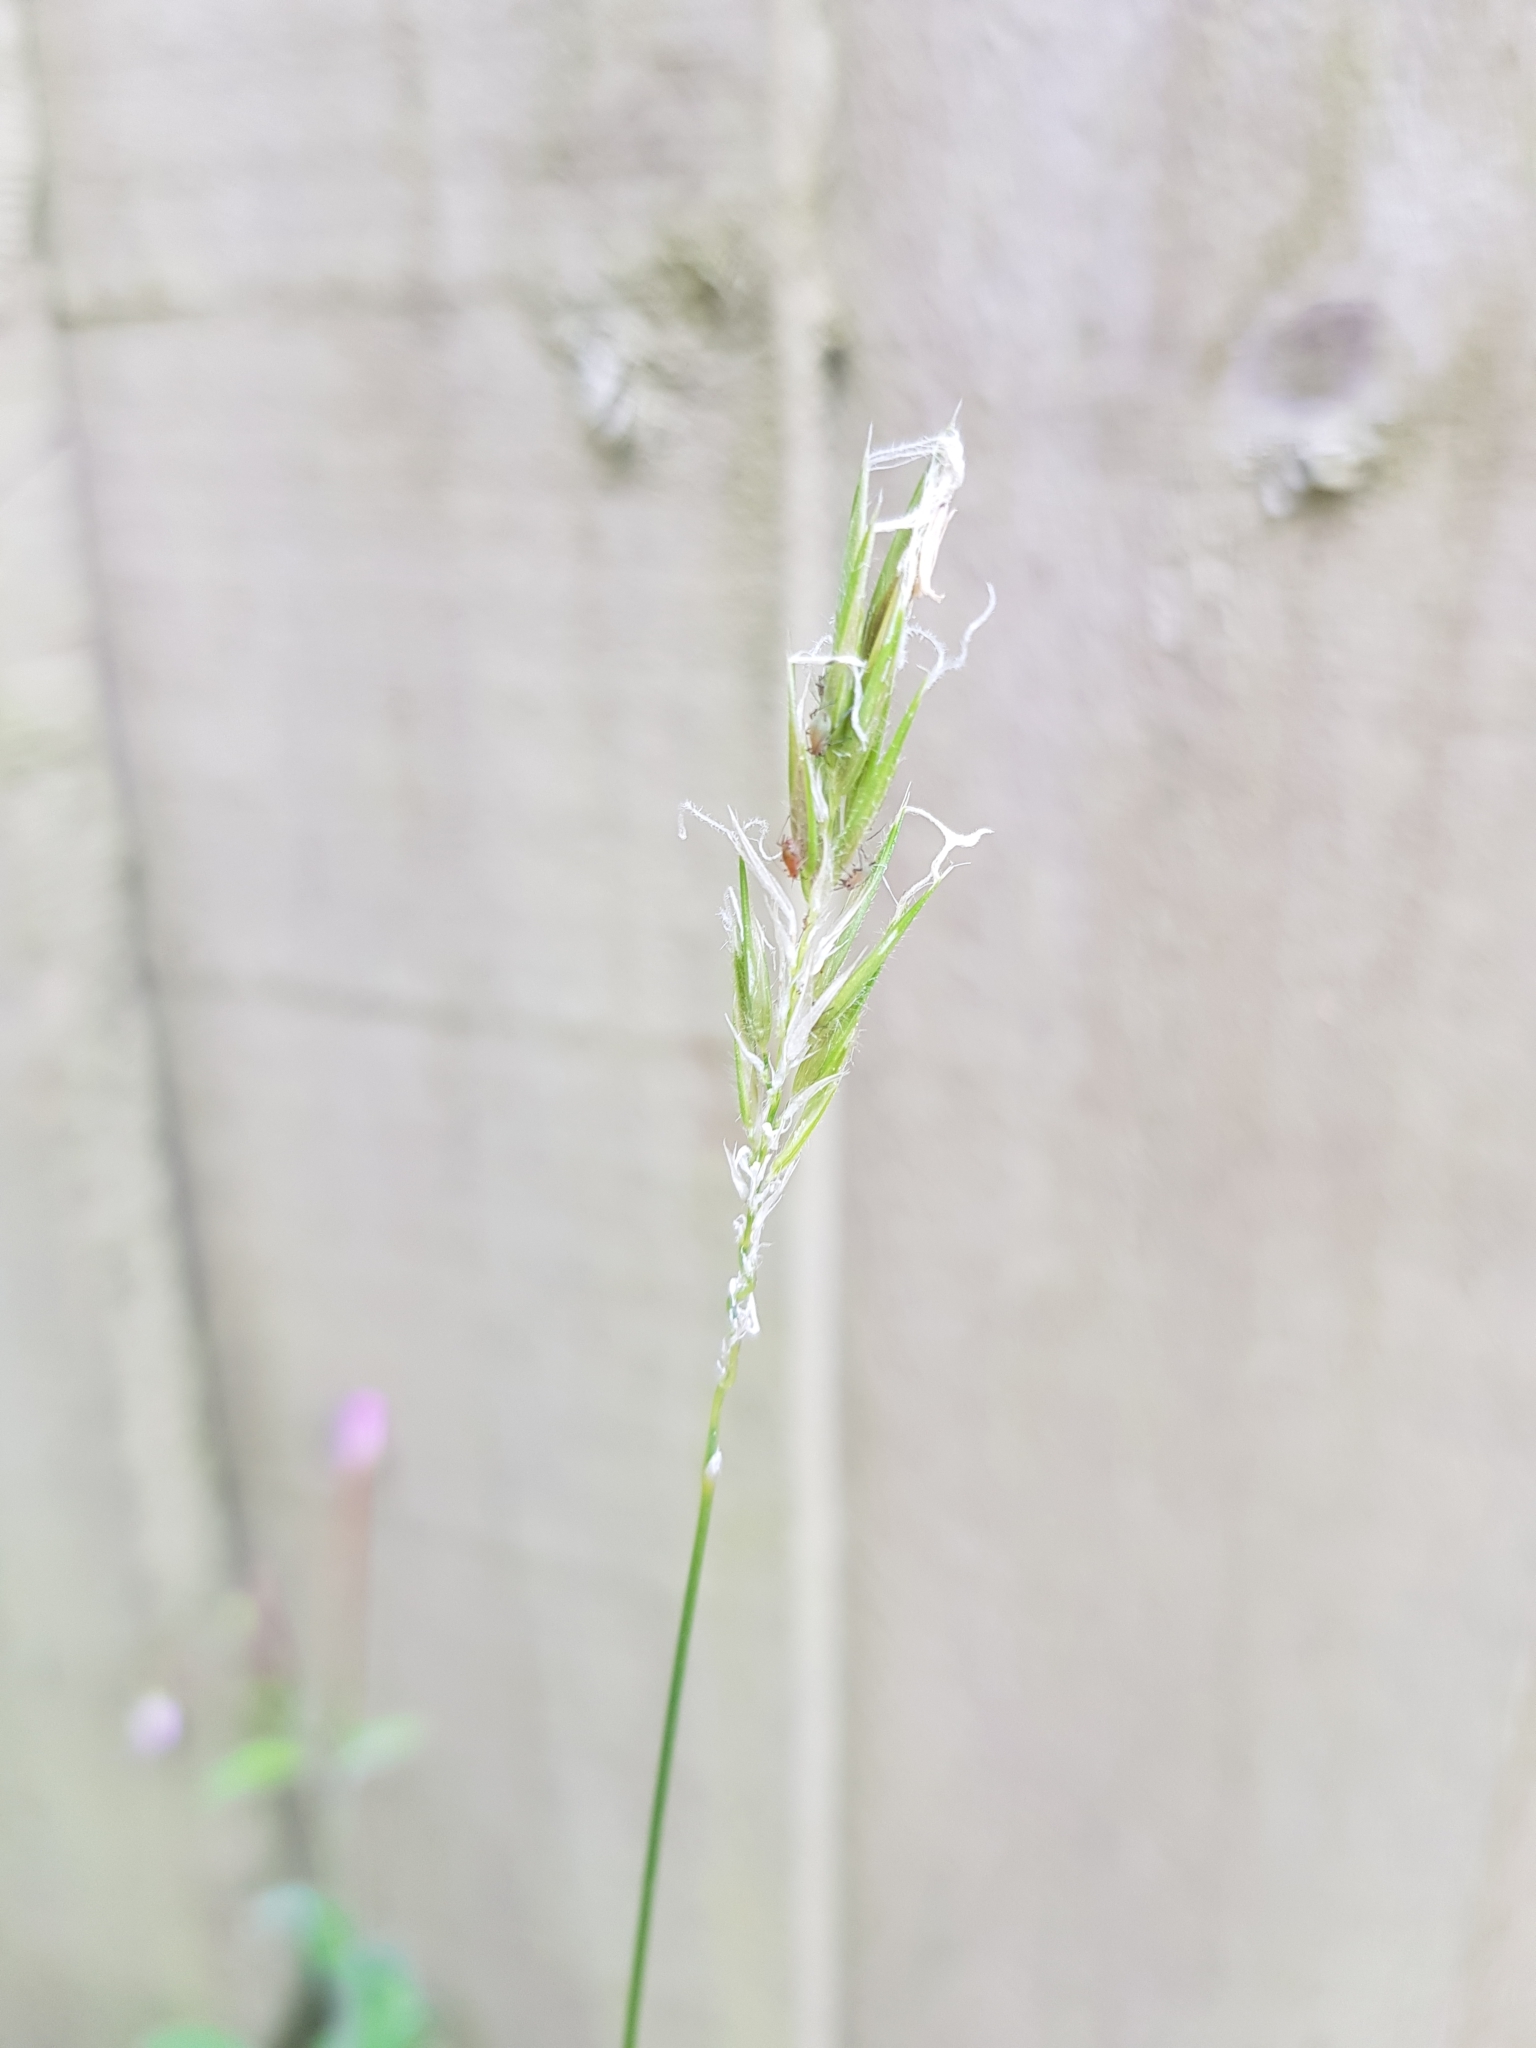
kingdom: Plantae
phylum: Tracheophyta
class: Liliopsida
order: Poales
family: Poaceae
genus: Anthoxanthum
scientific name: Anthoxanthum odoratum
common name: Sweet vernalgrass
